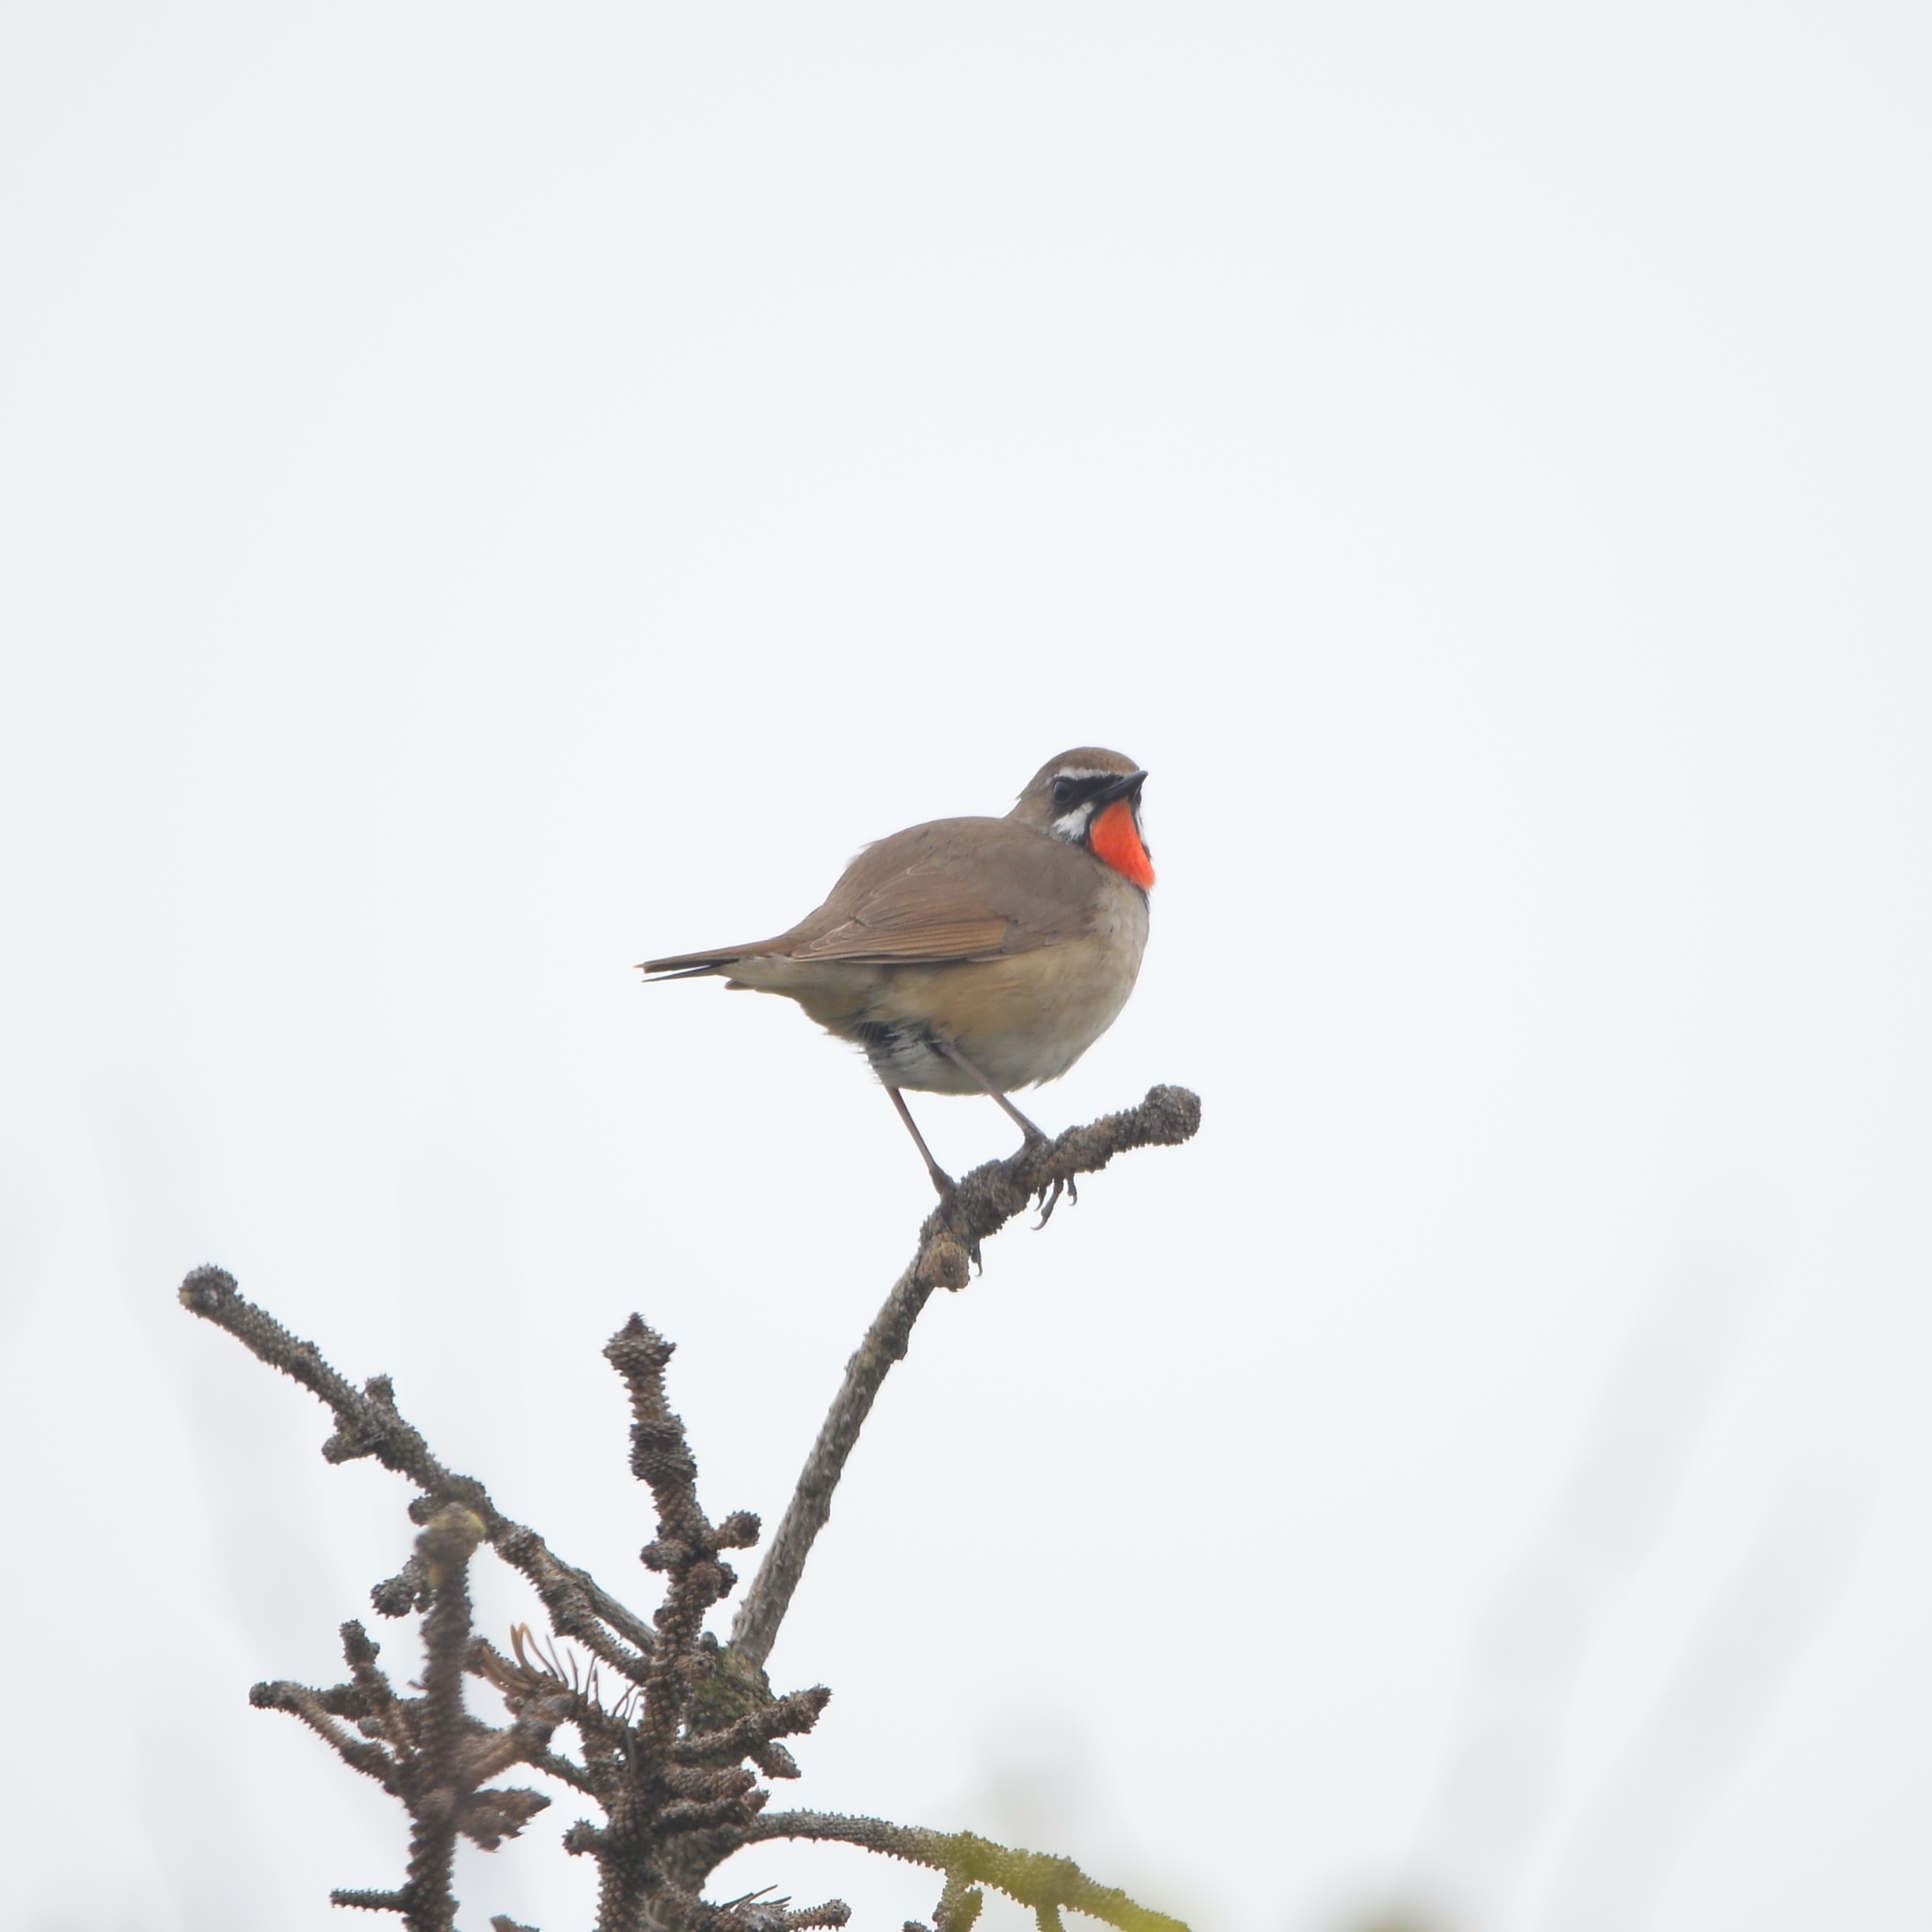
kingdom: Animalia
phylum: Chordata
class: Aves
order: Passeriformes
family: Muscicapidae
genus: Luscinia
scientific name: Luscinia calliope
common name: Siberian rubythroat
